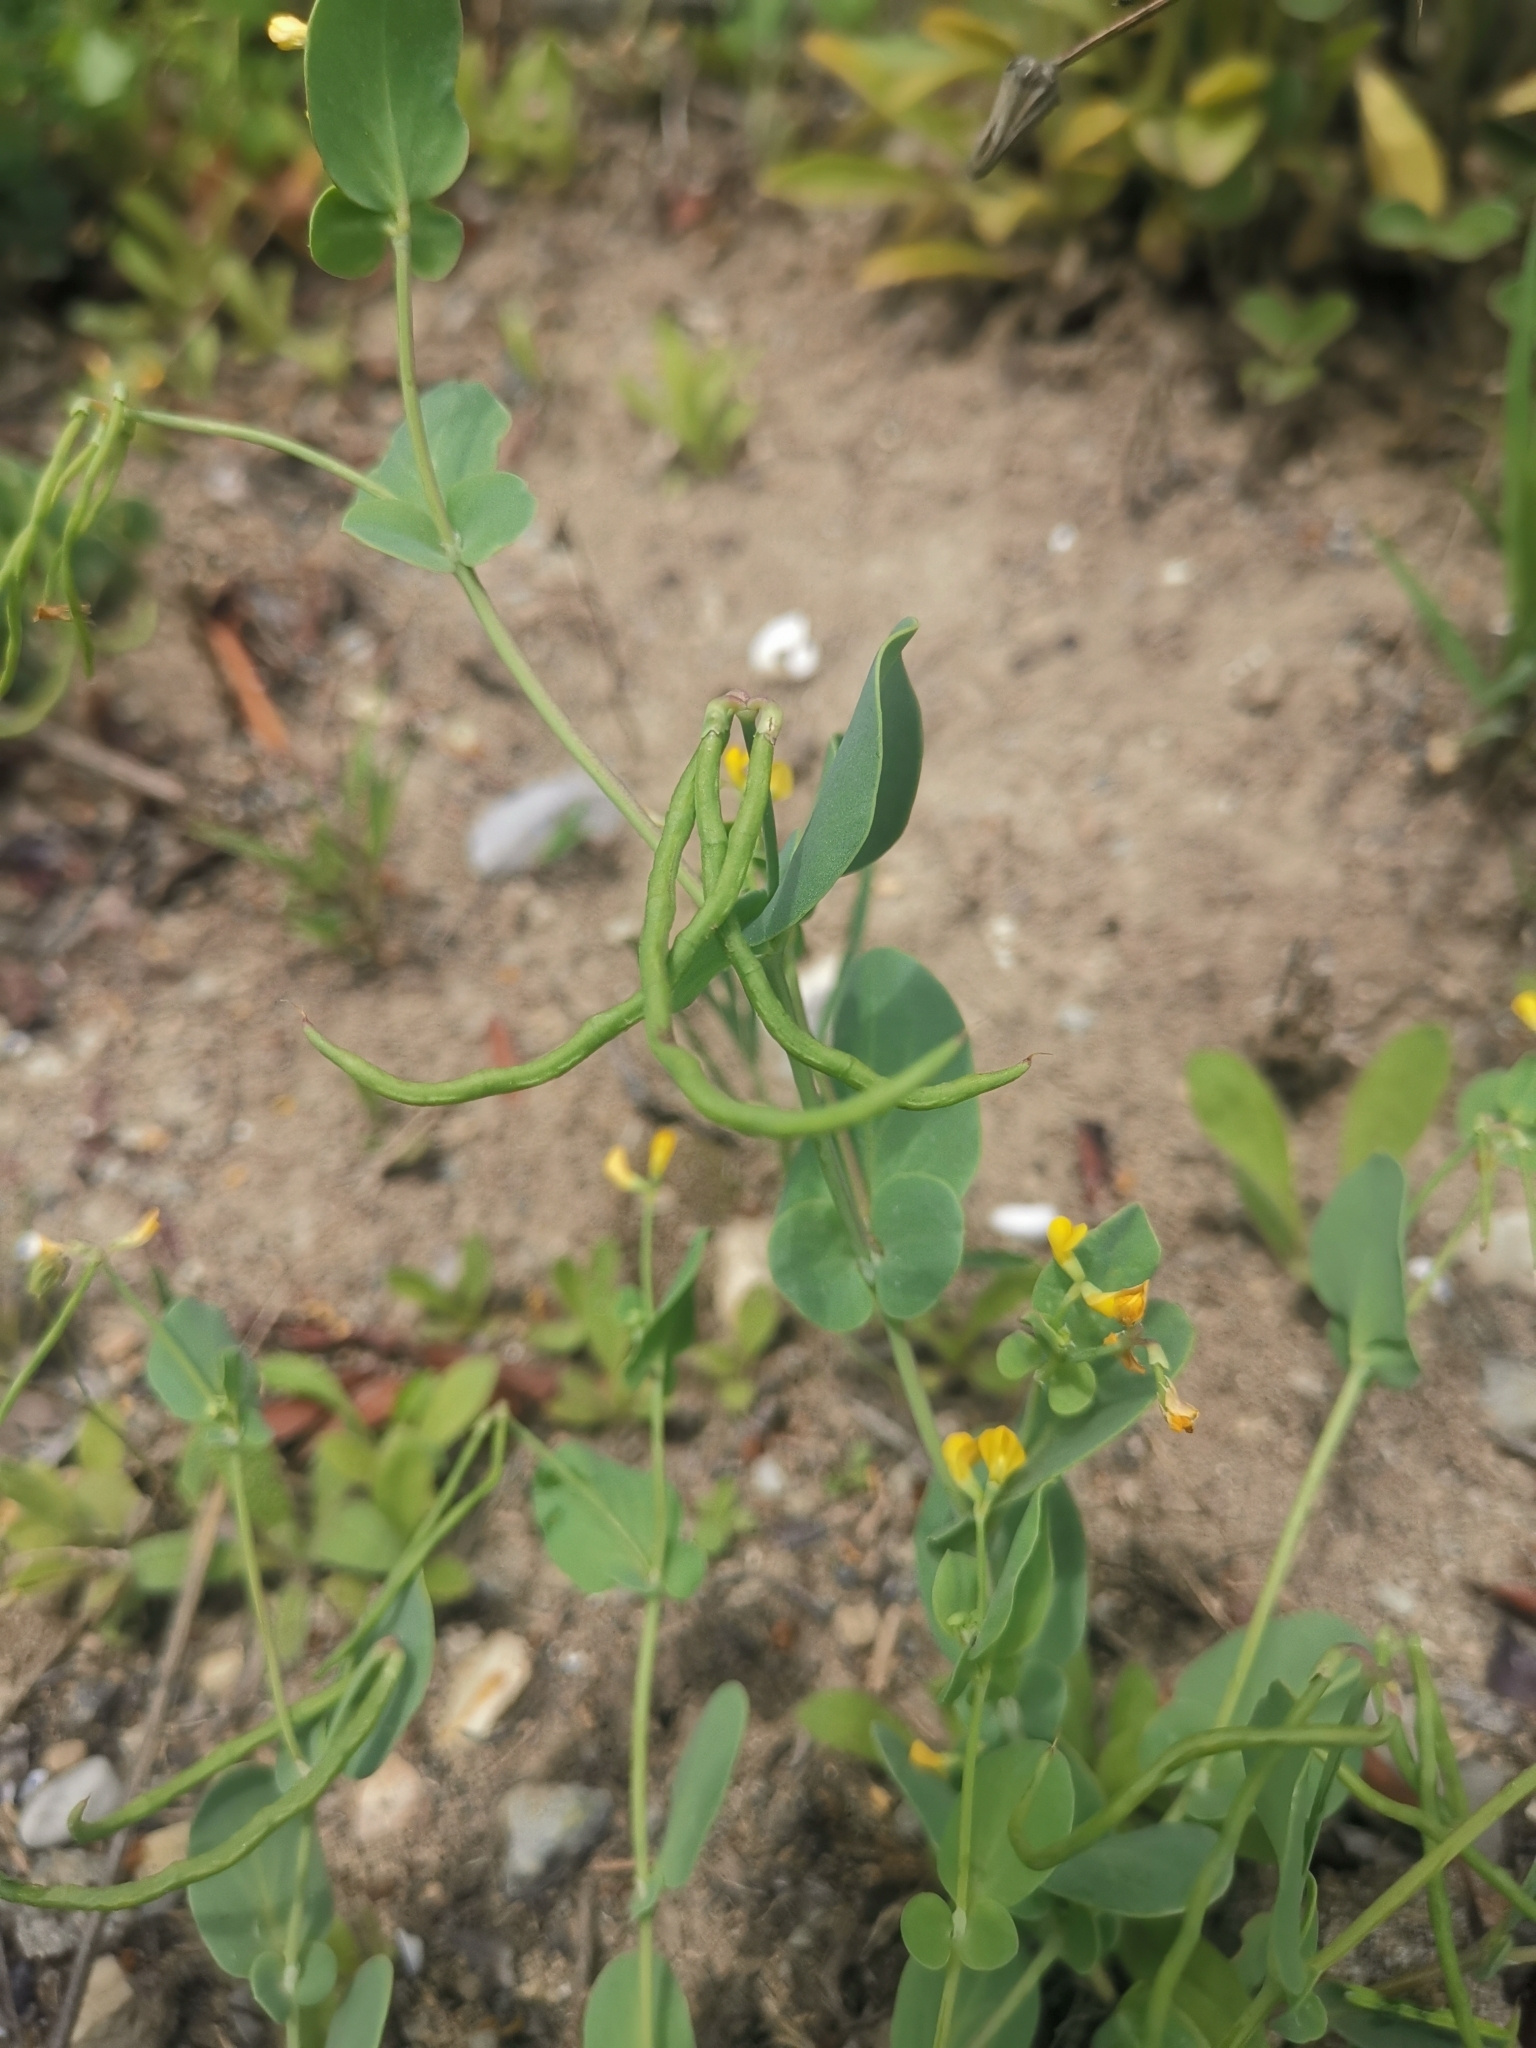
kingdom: Plantae
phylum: Tracheophyta
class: Magnoliopsida
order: Fabales
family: Fabaceae
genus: Coronilla
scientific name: Coronilla scorpioides
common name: Annual scorpion-vetch
